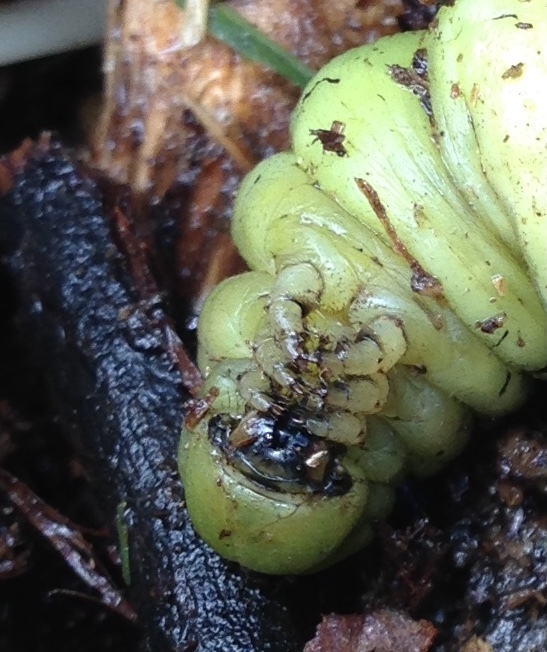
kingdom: Animalia
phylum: Arthropoda
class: Insecta
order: Lepidoptera
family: Sphingidae
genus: Hyles
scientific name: Hyles lineata
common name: White-lined sphinx
